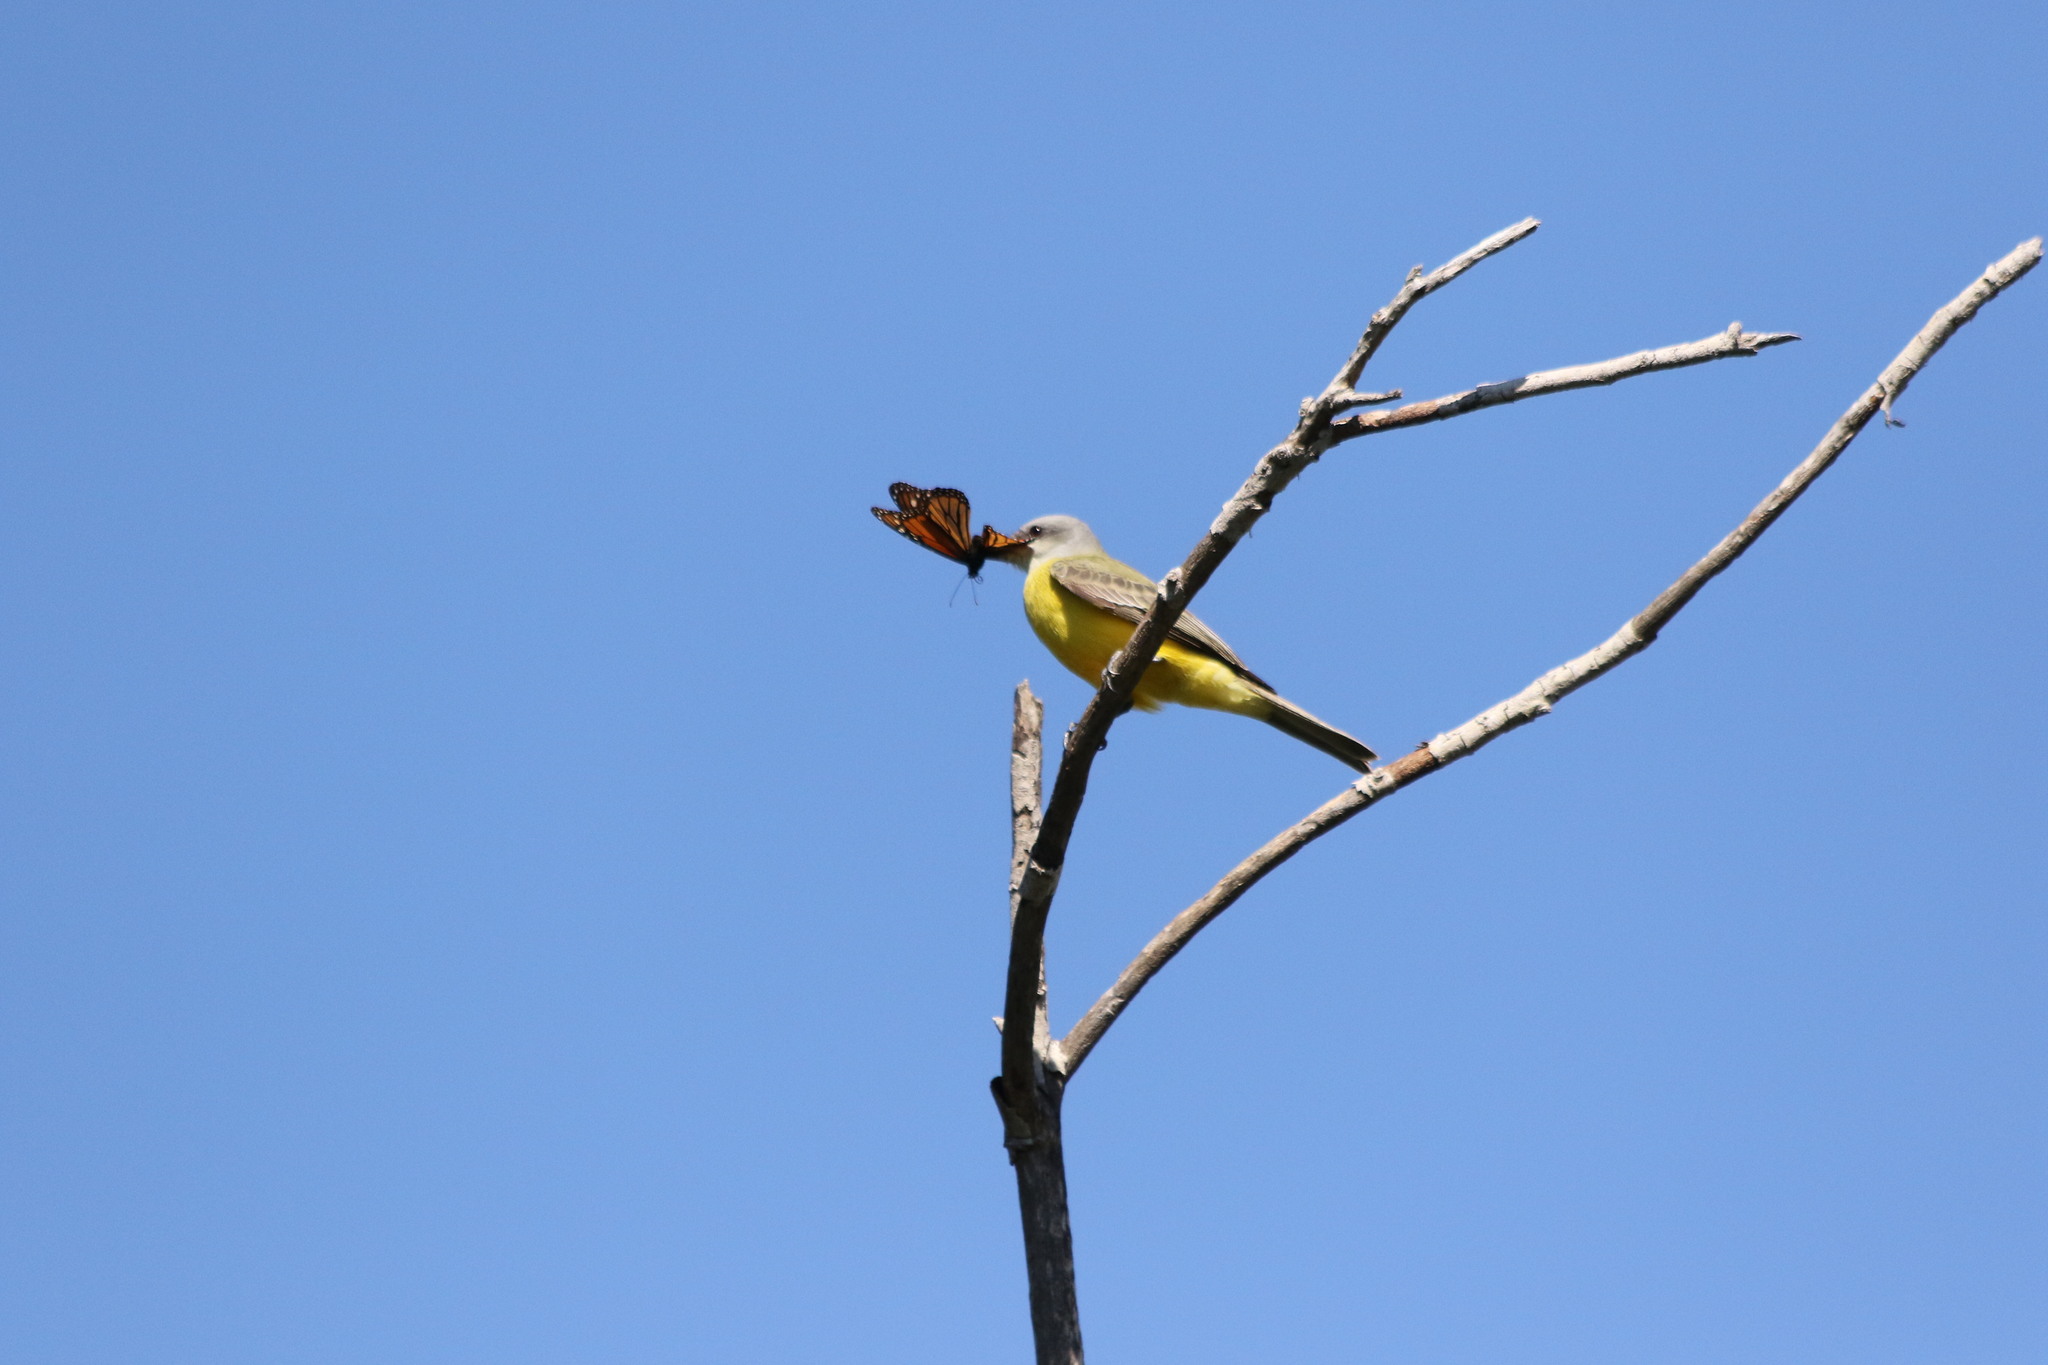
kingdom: Animalia
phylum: Chordata
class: Aves
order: Passeriformes
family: Tyrannidae
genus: Tyrannus
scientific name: Tyrannus
